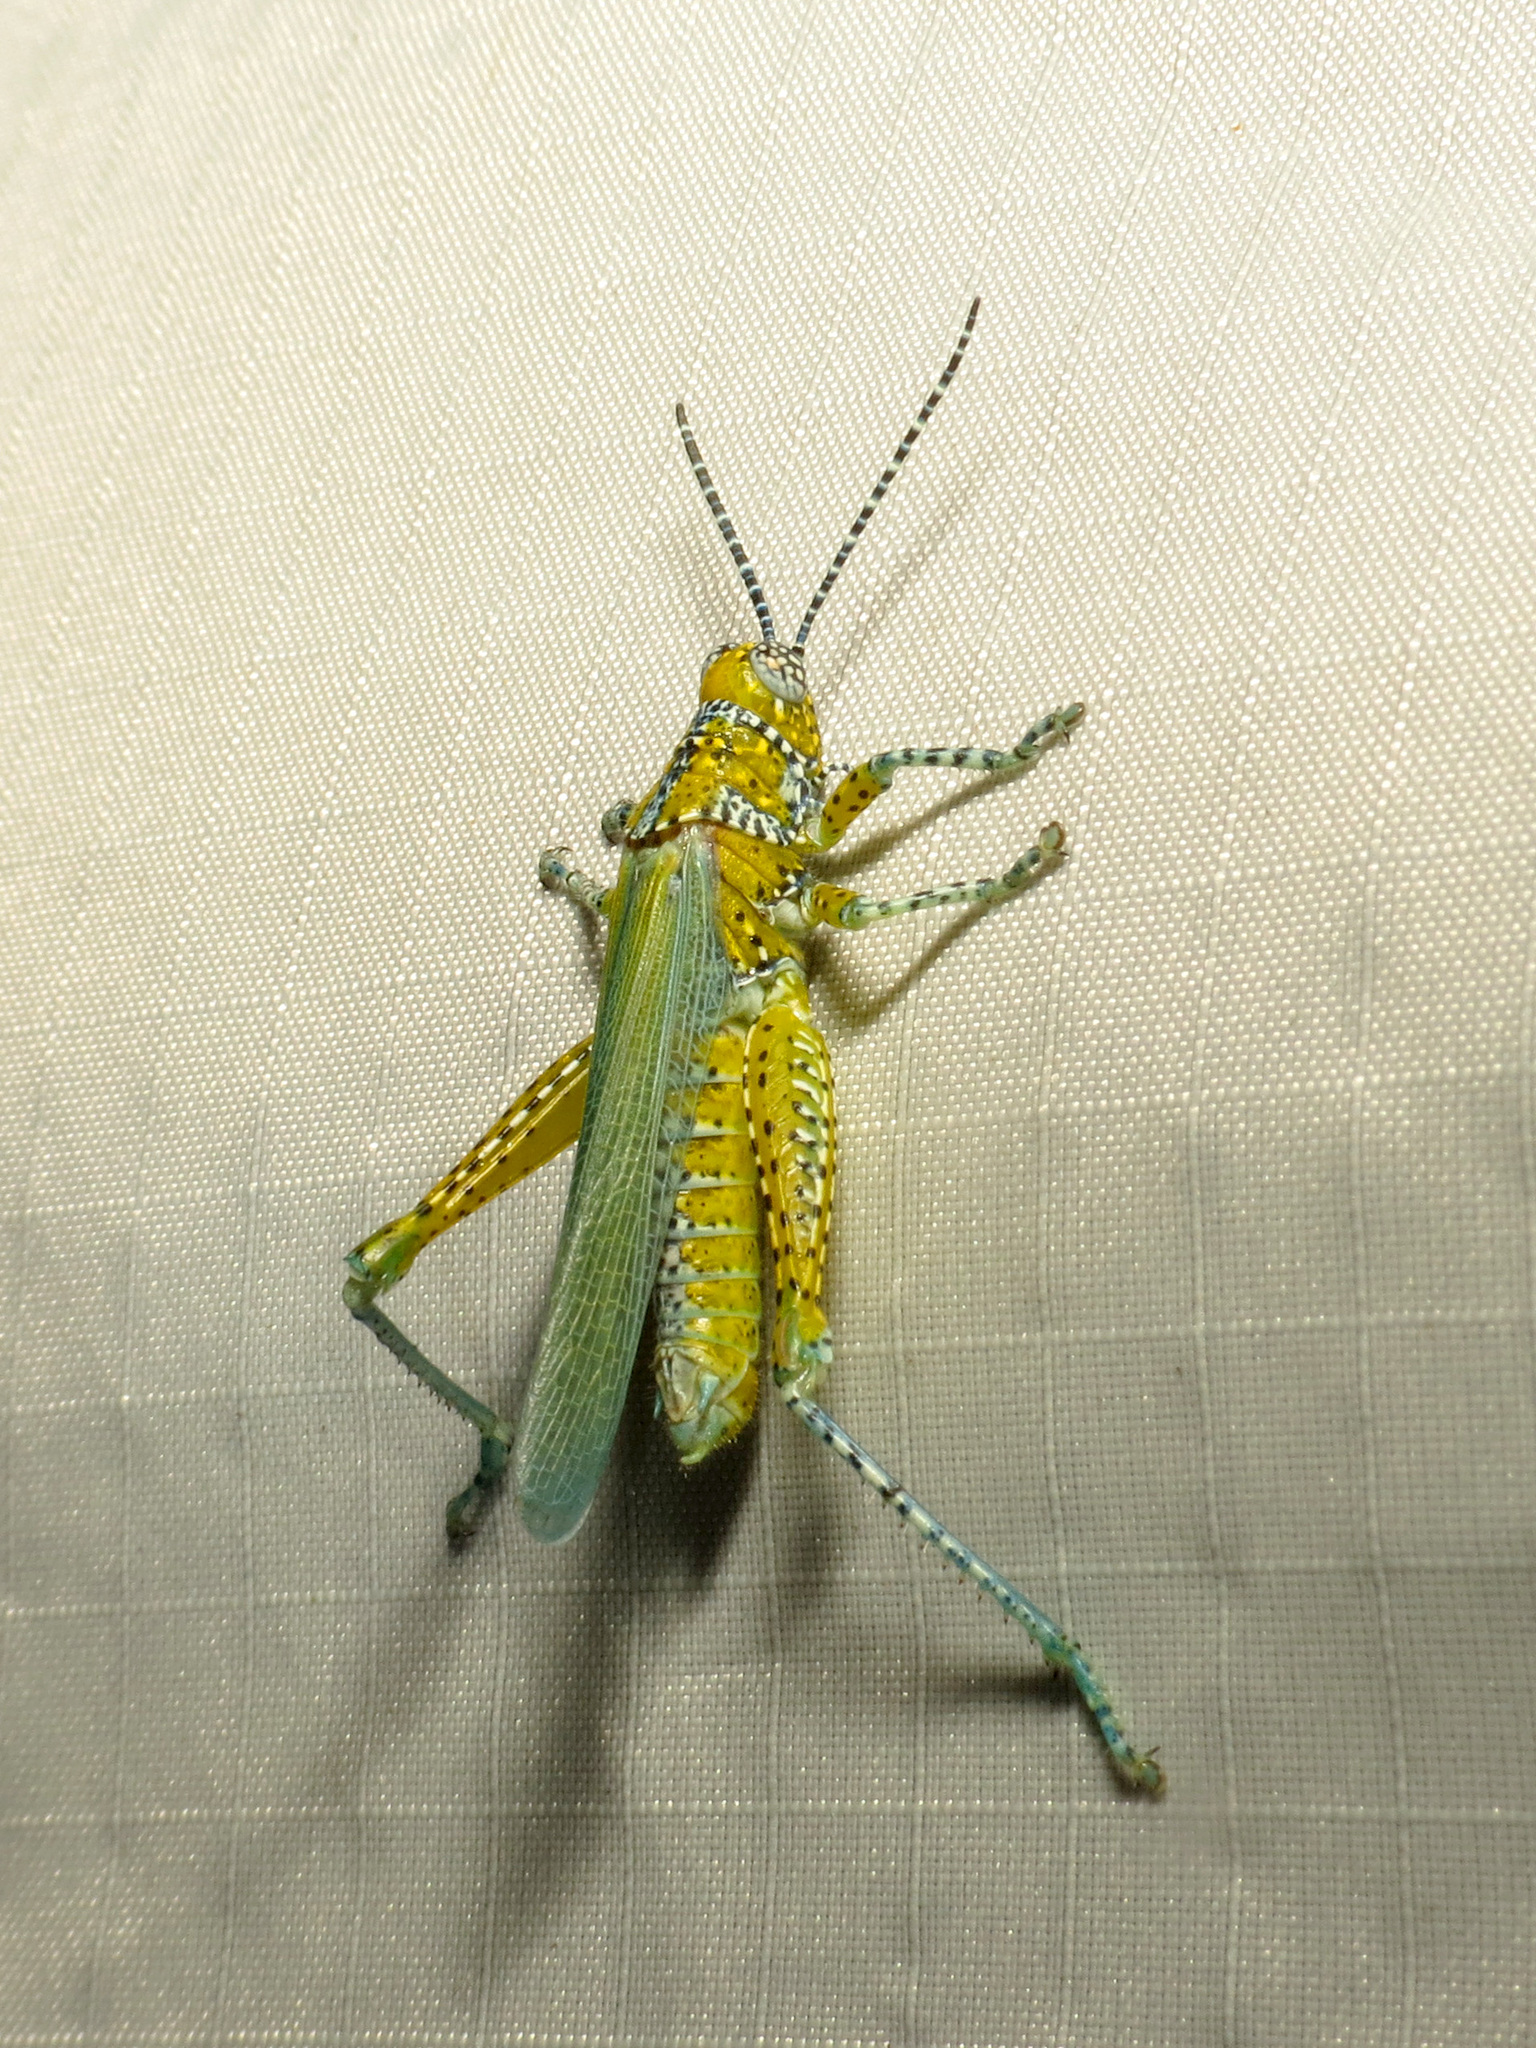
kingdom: Animalia
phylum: Arthropoda
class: Insecta
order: Orthoptera
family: Acrididae
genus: Poecilotettix
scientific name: Poecilotettix pantherinus
